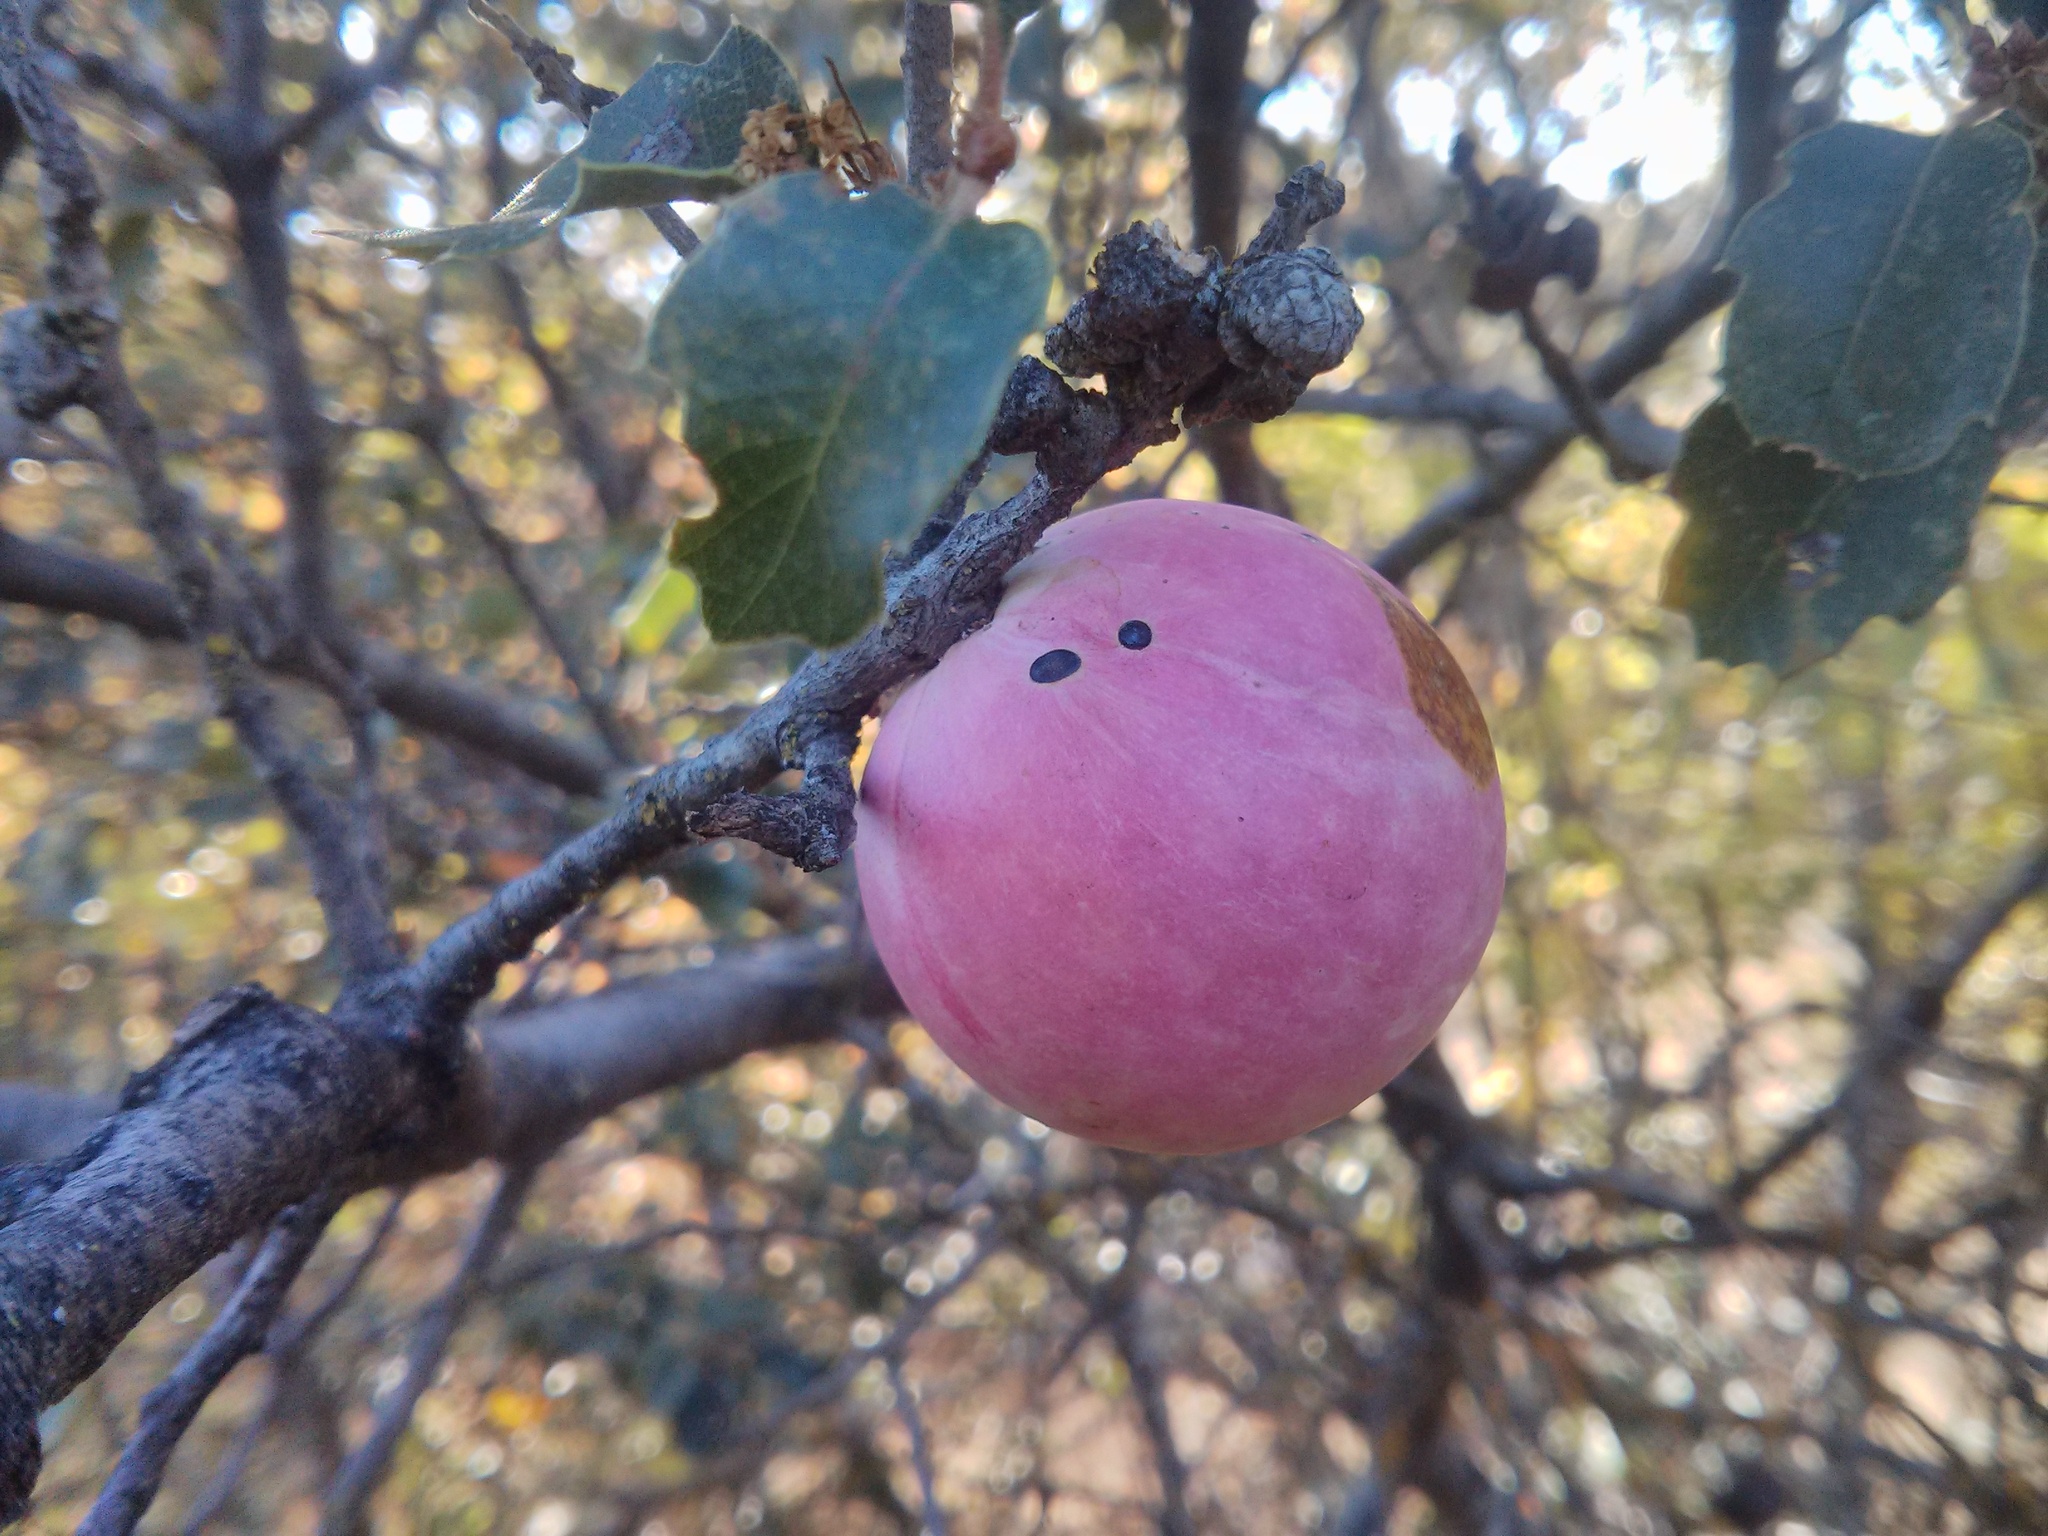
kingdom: Animalia
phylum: Arthropoda
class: Insecta
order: Hymenoptera
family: Cynipidae
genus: Andricus
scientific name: Andricus quercuscalifornicus
